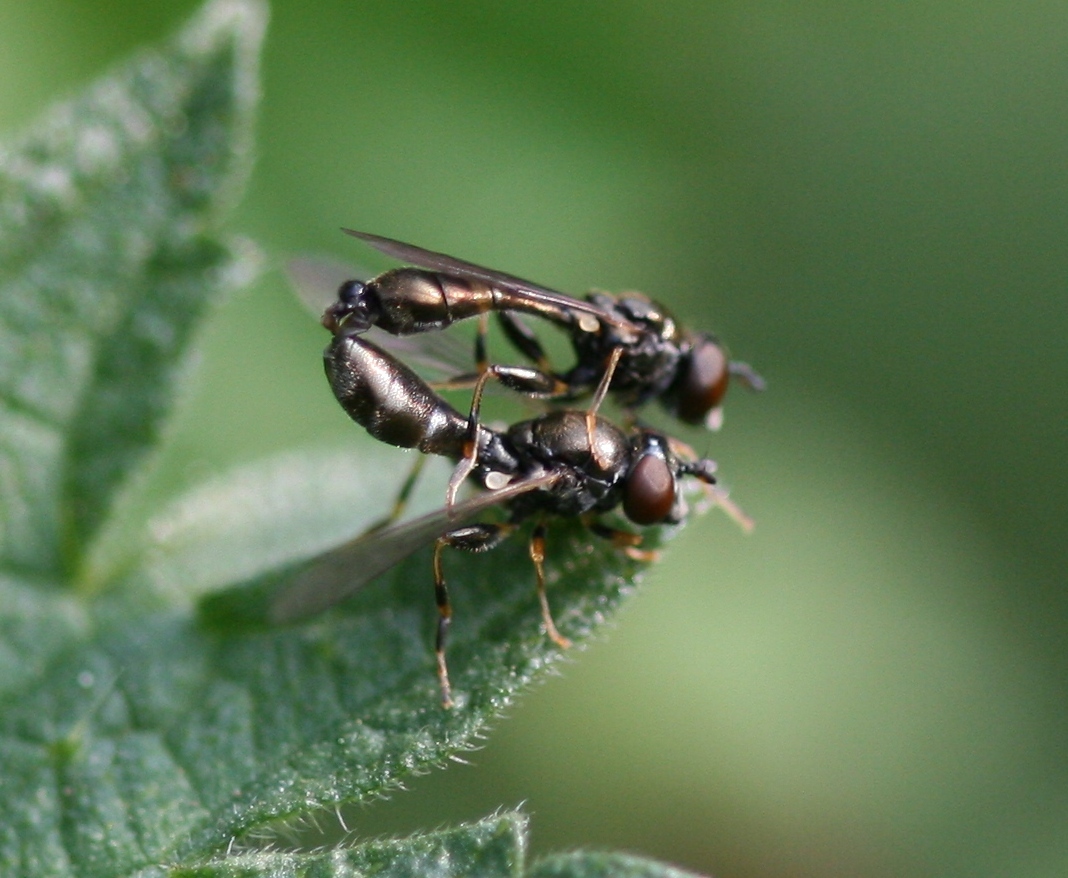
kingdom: Animalia
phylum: Arthropoda
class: Insecta
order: Diptera
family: Syrphidae
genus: Neoascia
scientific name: Neoascia meticulosa
